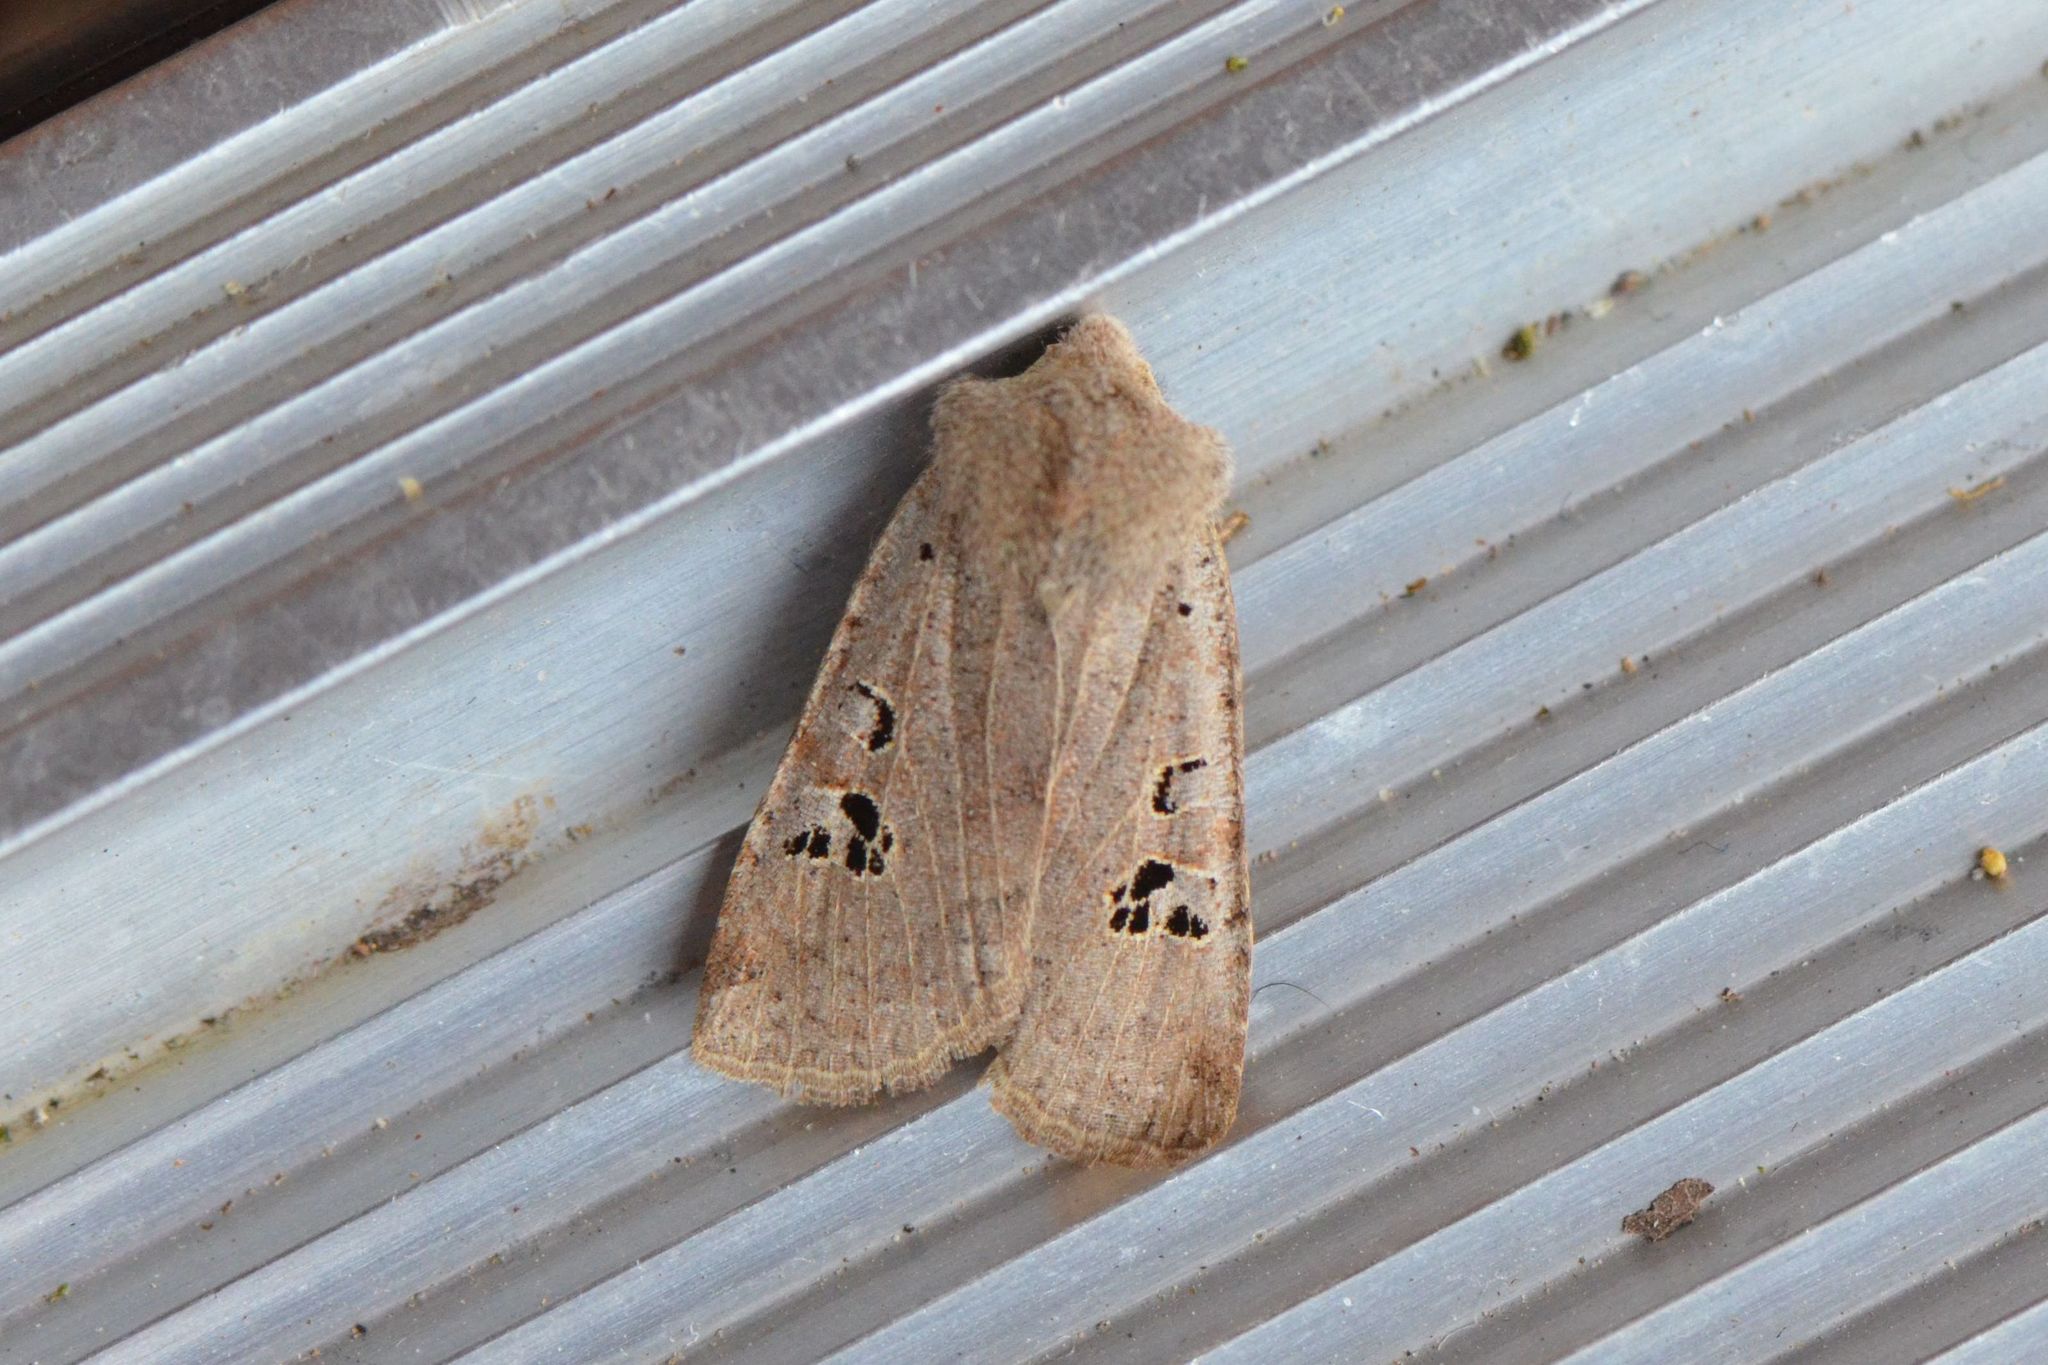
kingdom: Animalia
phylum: Arthropoda
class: Insecta
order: Lepidoptera
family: Noctuidae
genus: Conistra
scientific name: Conistra rubiginosa
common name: Black-spotted chestnut
